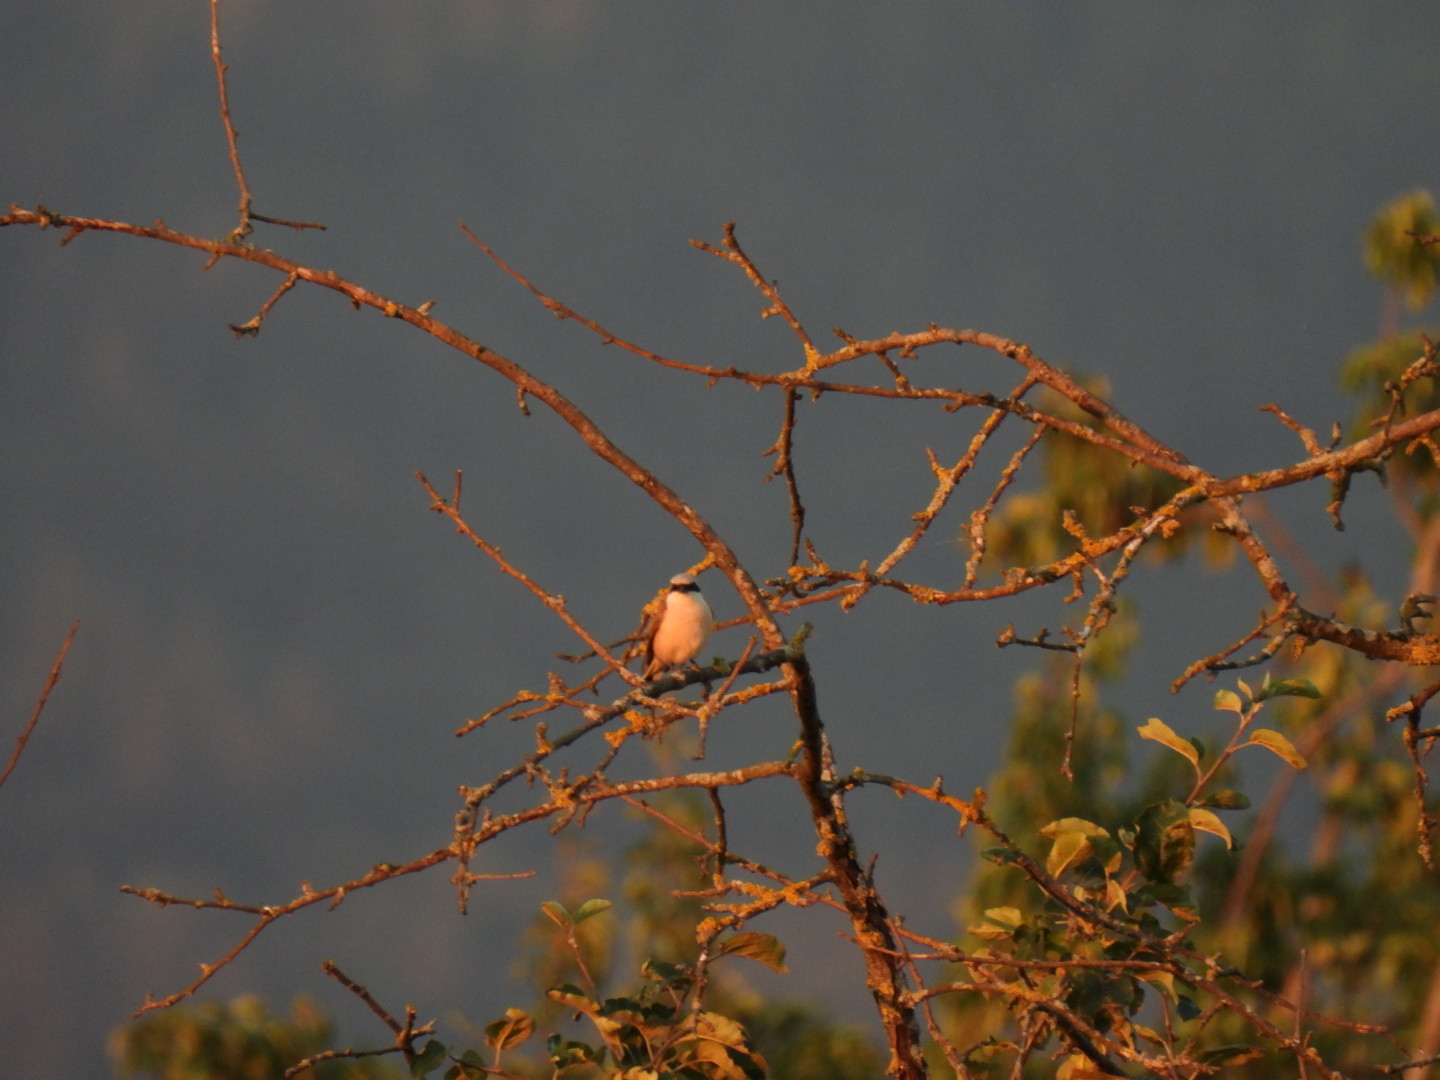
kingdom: Animalia
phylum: Chordata
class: Aves
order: Passeriformes
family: Laniidae
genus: Lanius
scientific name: Lanius collurio
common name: Red-backed shrike
